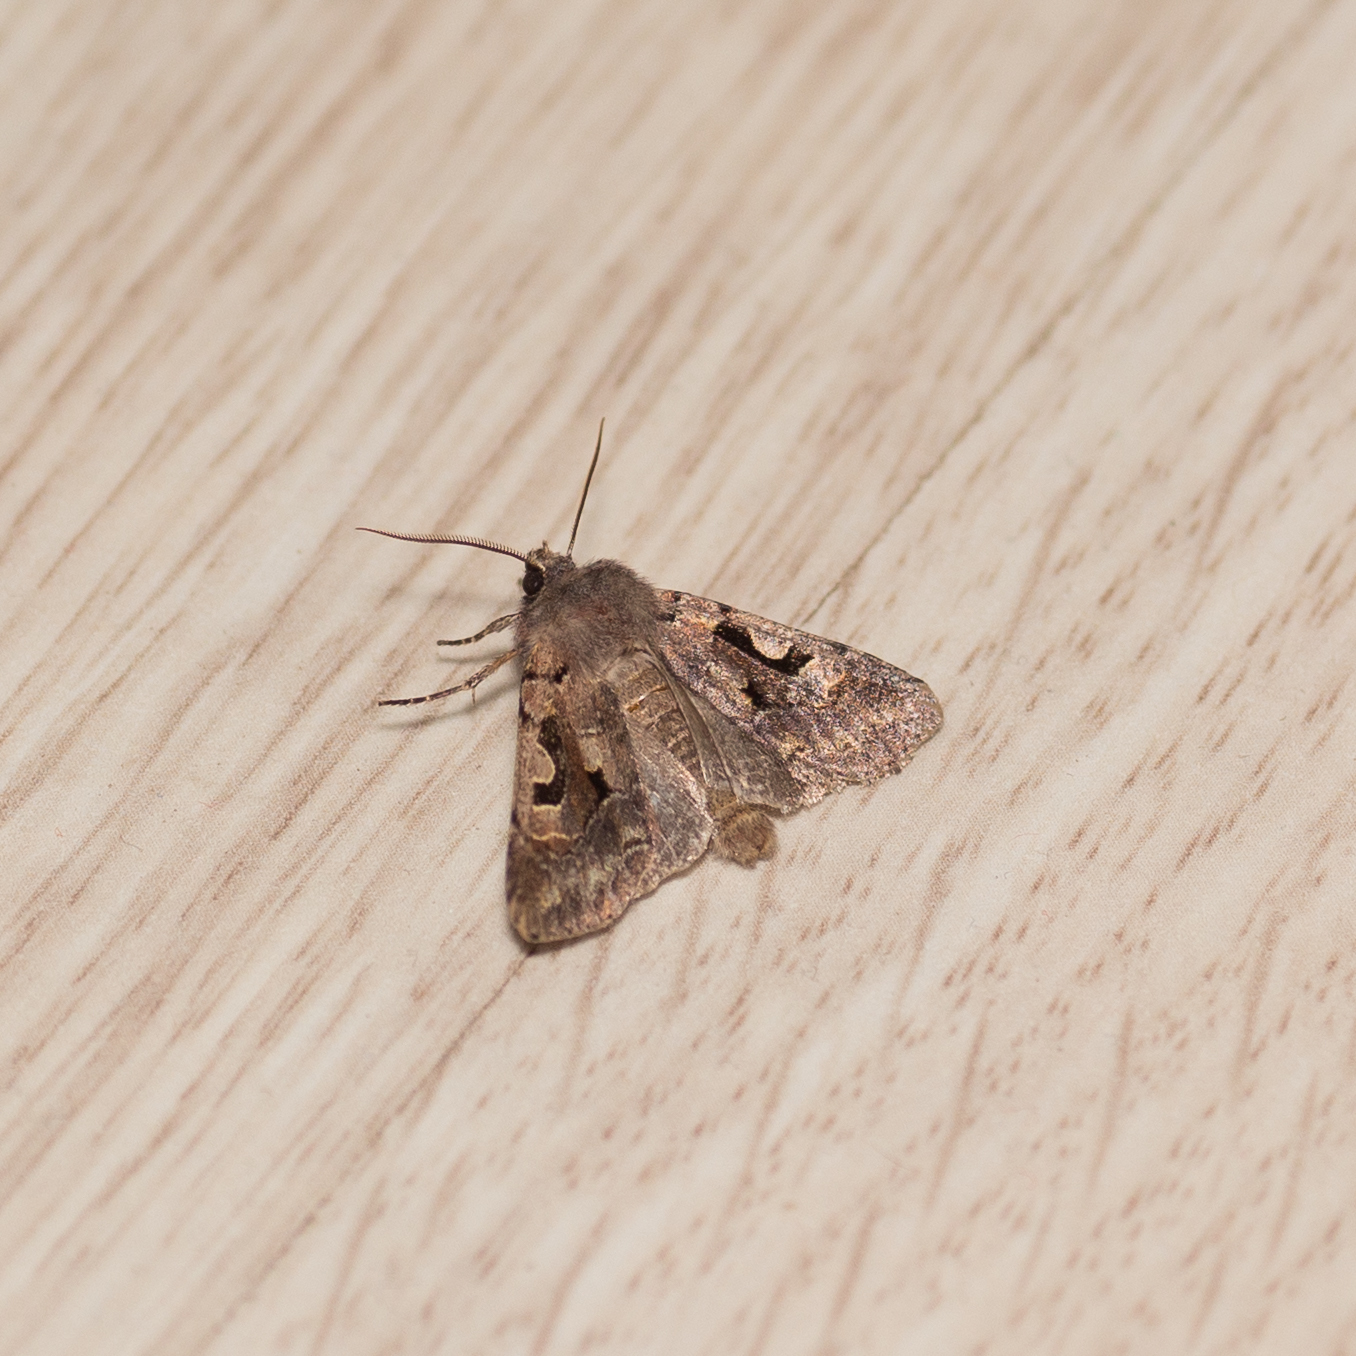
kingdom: Animalia
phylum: Arthropoda
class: Insecta
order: Lepidoptera
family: Noctuidae
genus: Orthosia
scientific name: Orthosia gothica
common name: Hebrew character
